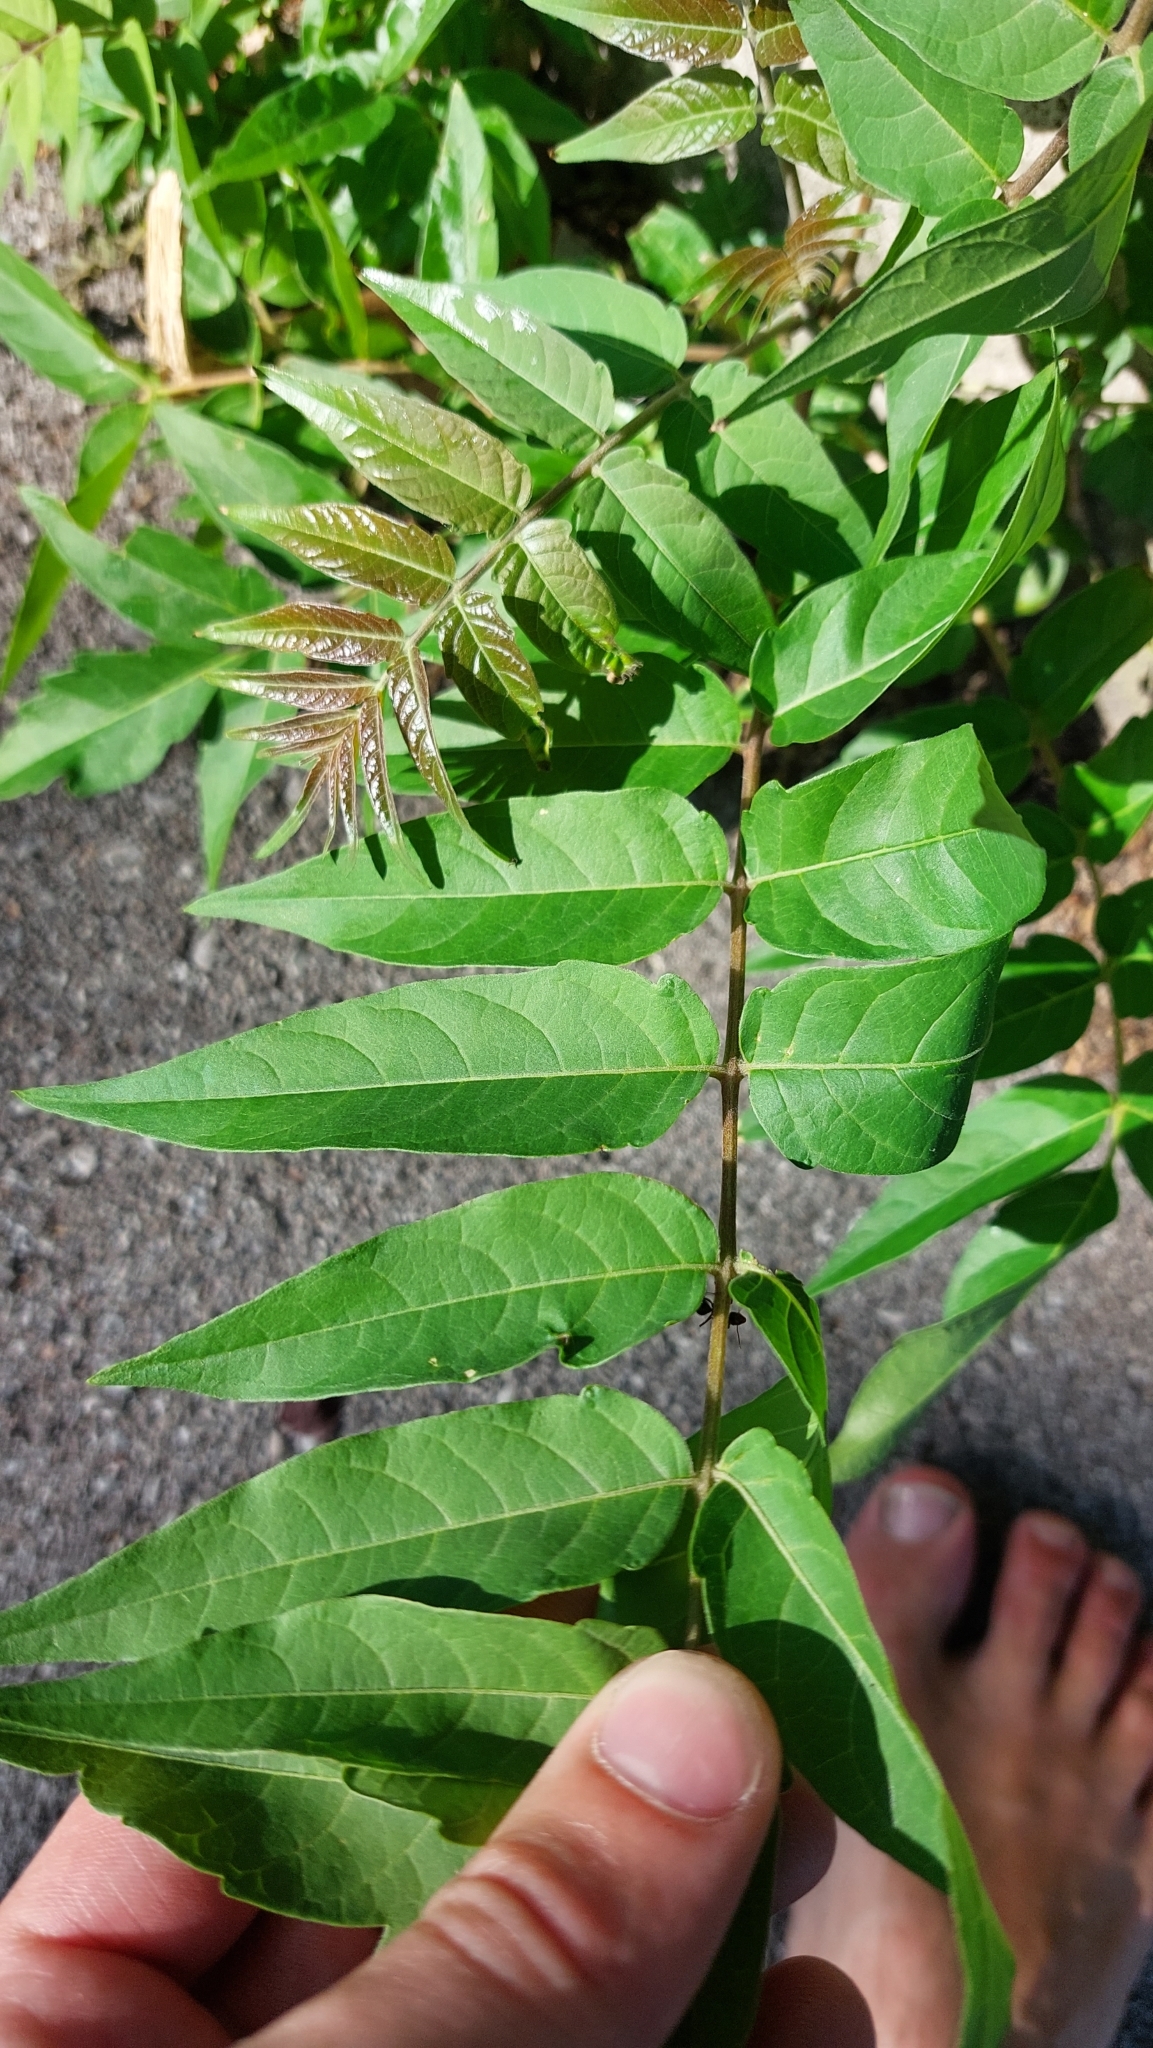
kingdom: Plantae
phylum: Tracheophyta
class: Magnoliopsida
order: Sapindales
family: Simaroubaceae
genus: Ailanthus
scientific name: Ailanthus altissima
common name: Tree-of-heaven
